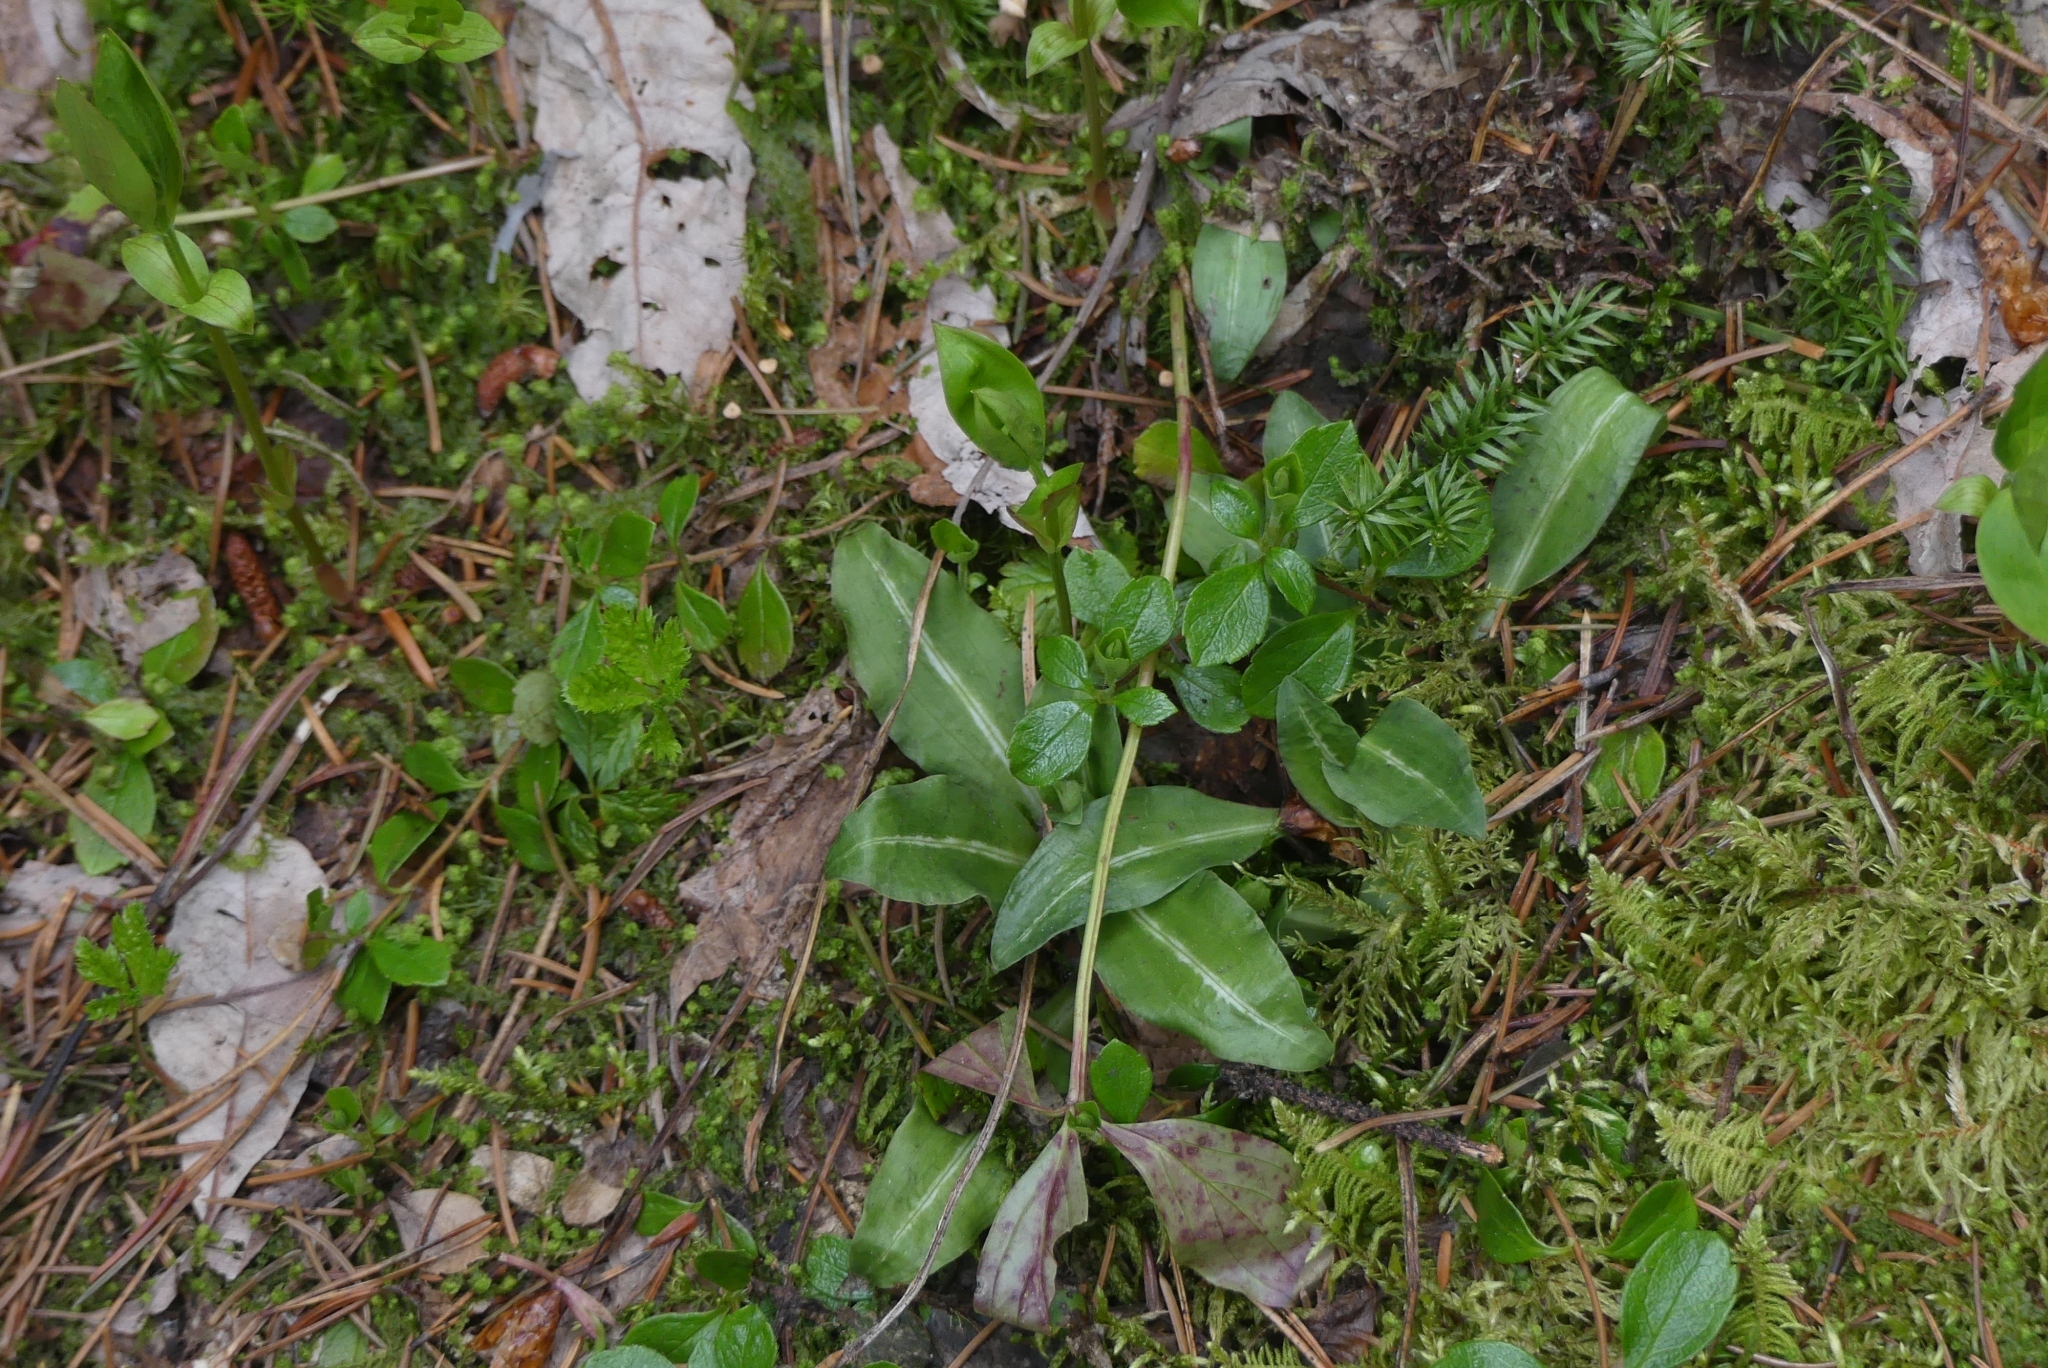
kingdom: Plantae
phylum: Tracheophyta
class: Liliopsida
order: Asparagales
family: Orchidaceae
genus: Goodyera
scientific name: Goodyera oblongifolia
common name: Giant rattlesnake-plantain
